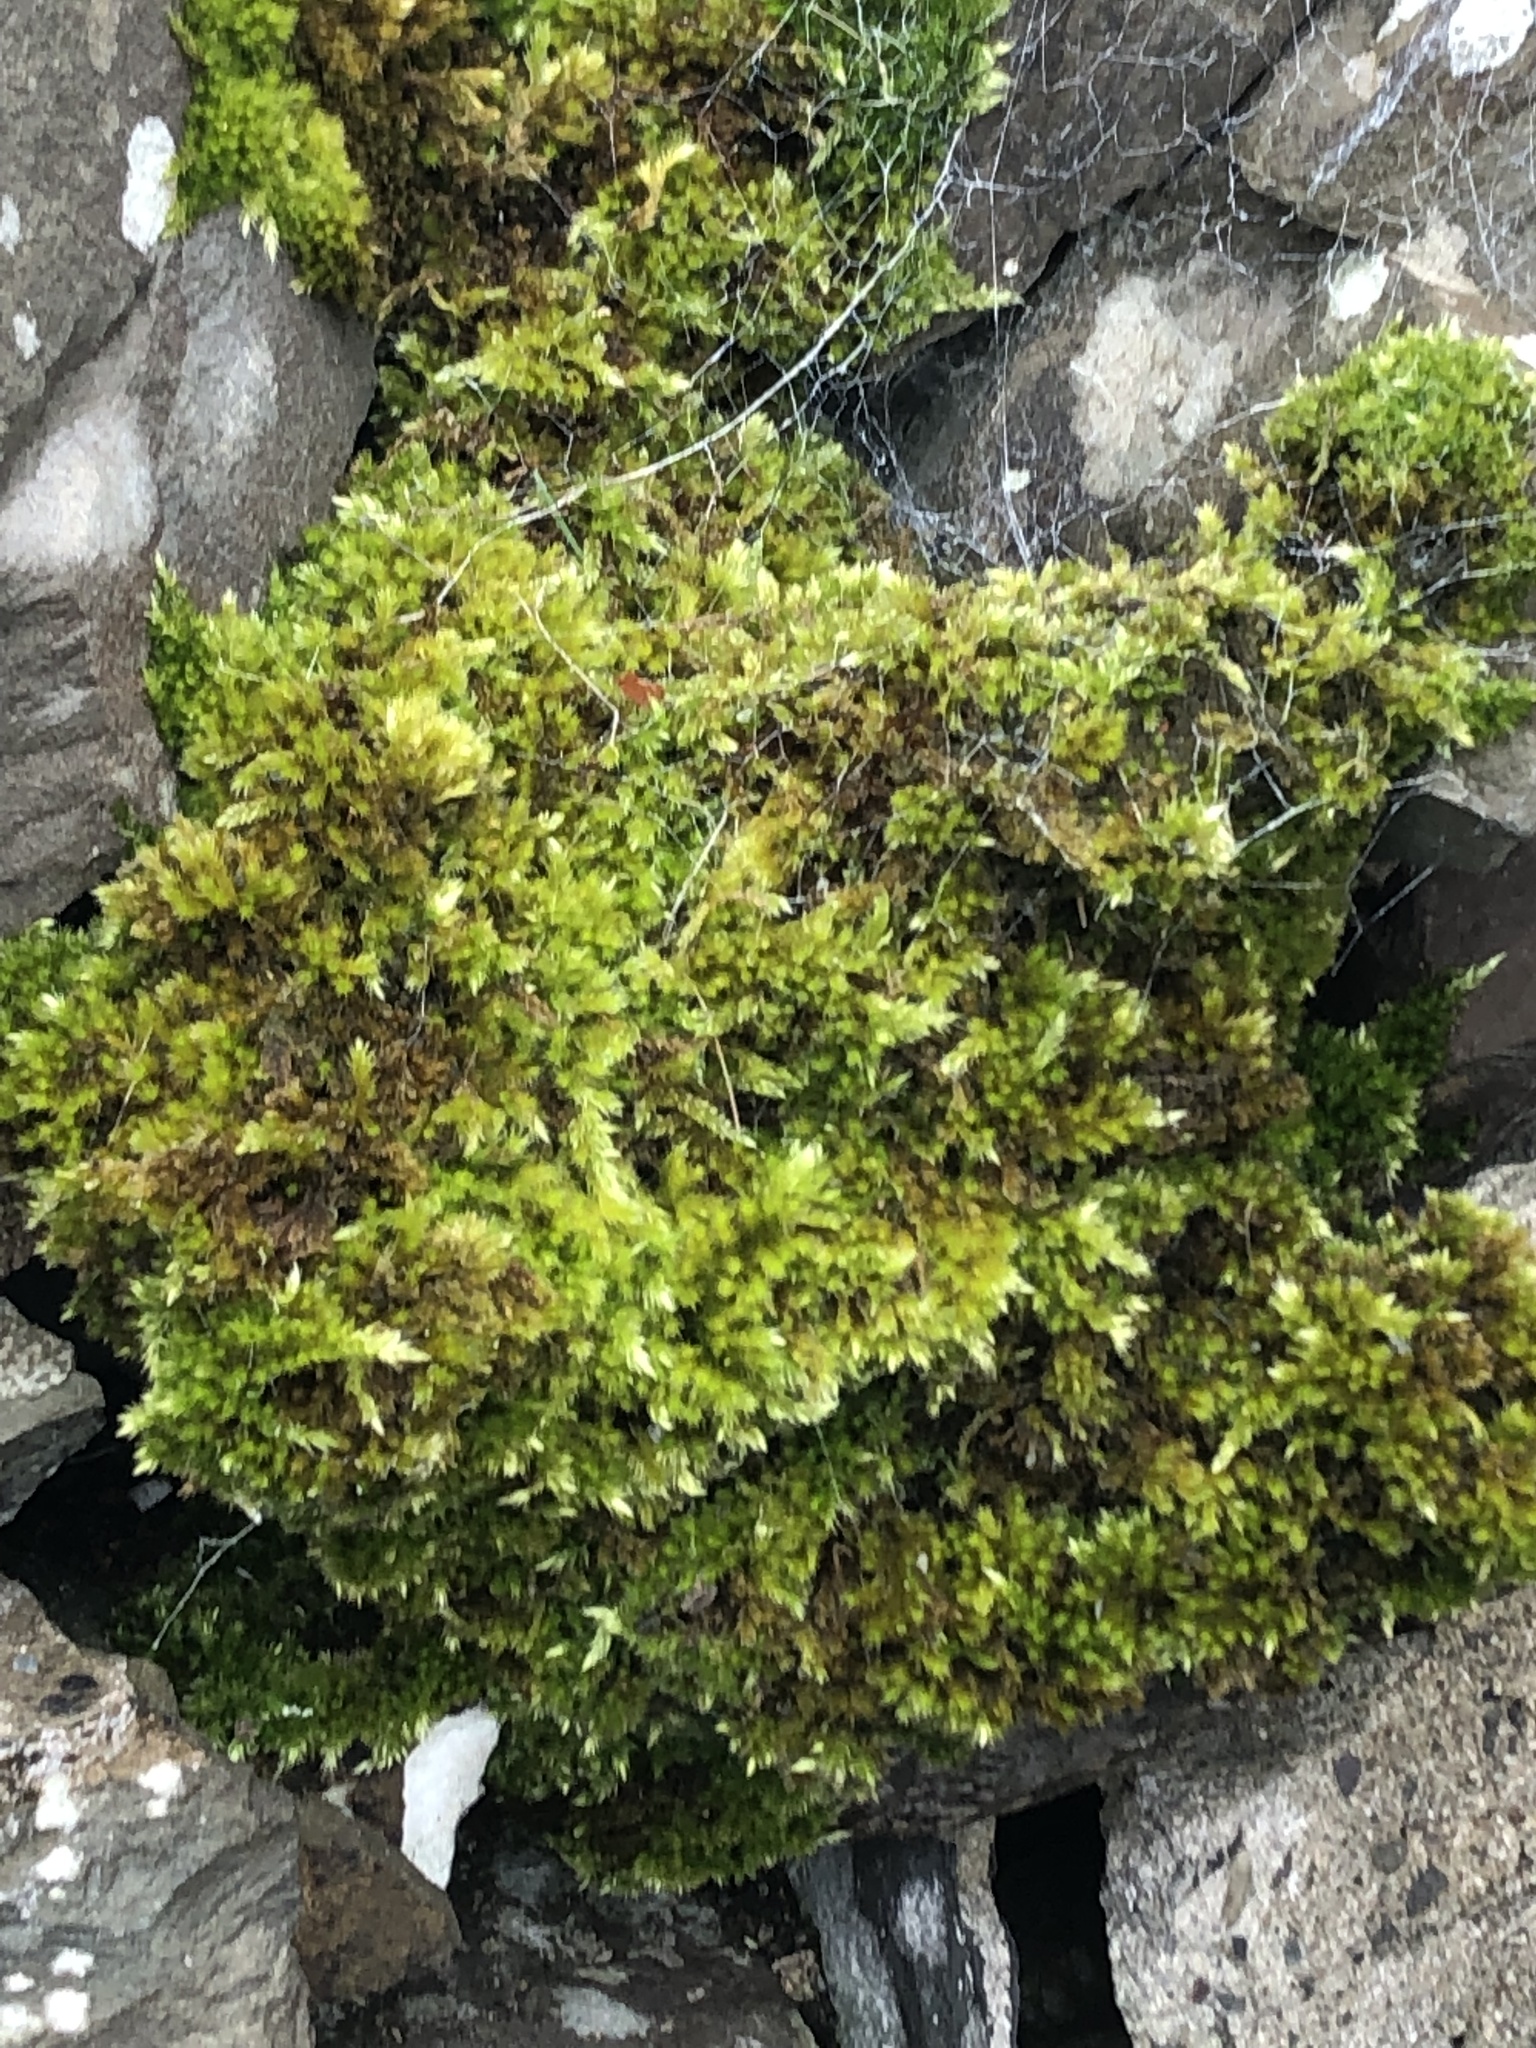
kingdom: Plantae
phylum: Bryophyta
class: Bryopsida
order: Hypnales
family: Brachytheciaceae
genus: Homalothecium
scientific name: Homalothecium sericeum
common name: Silky wall feather-moss
